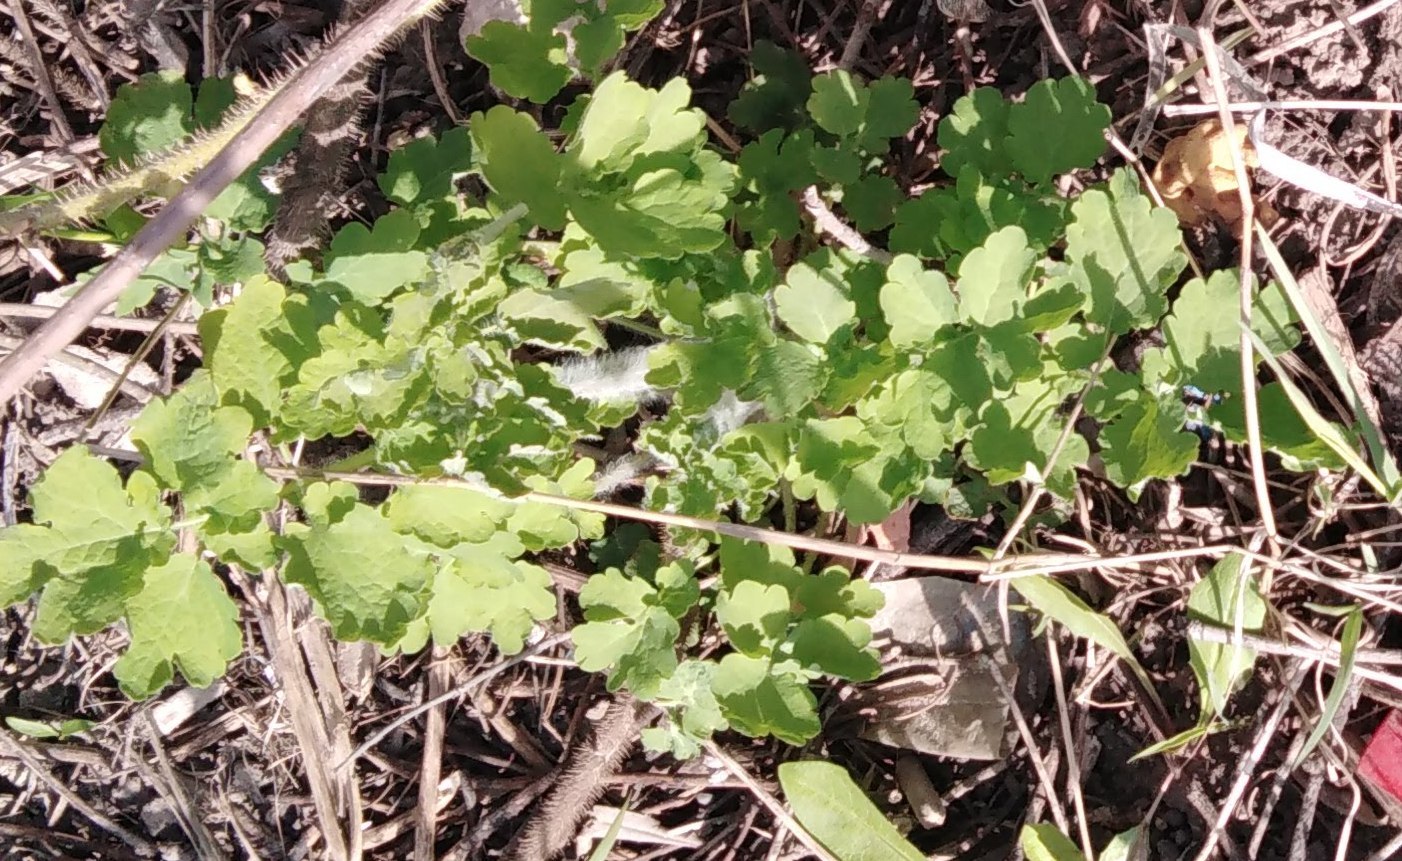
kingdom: Plantae
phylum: Tracheophyta
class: Magnoliopsida
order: Ranunculales
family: Papaveraceae
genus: Chelidonium
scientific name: Chelidonium majus
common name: Greater celandine
